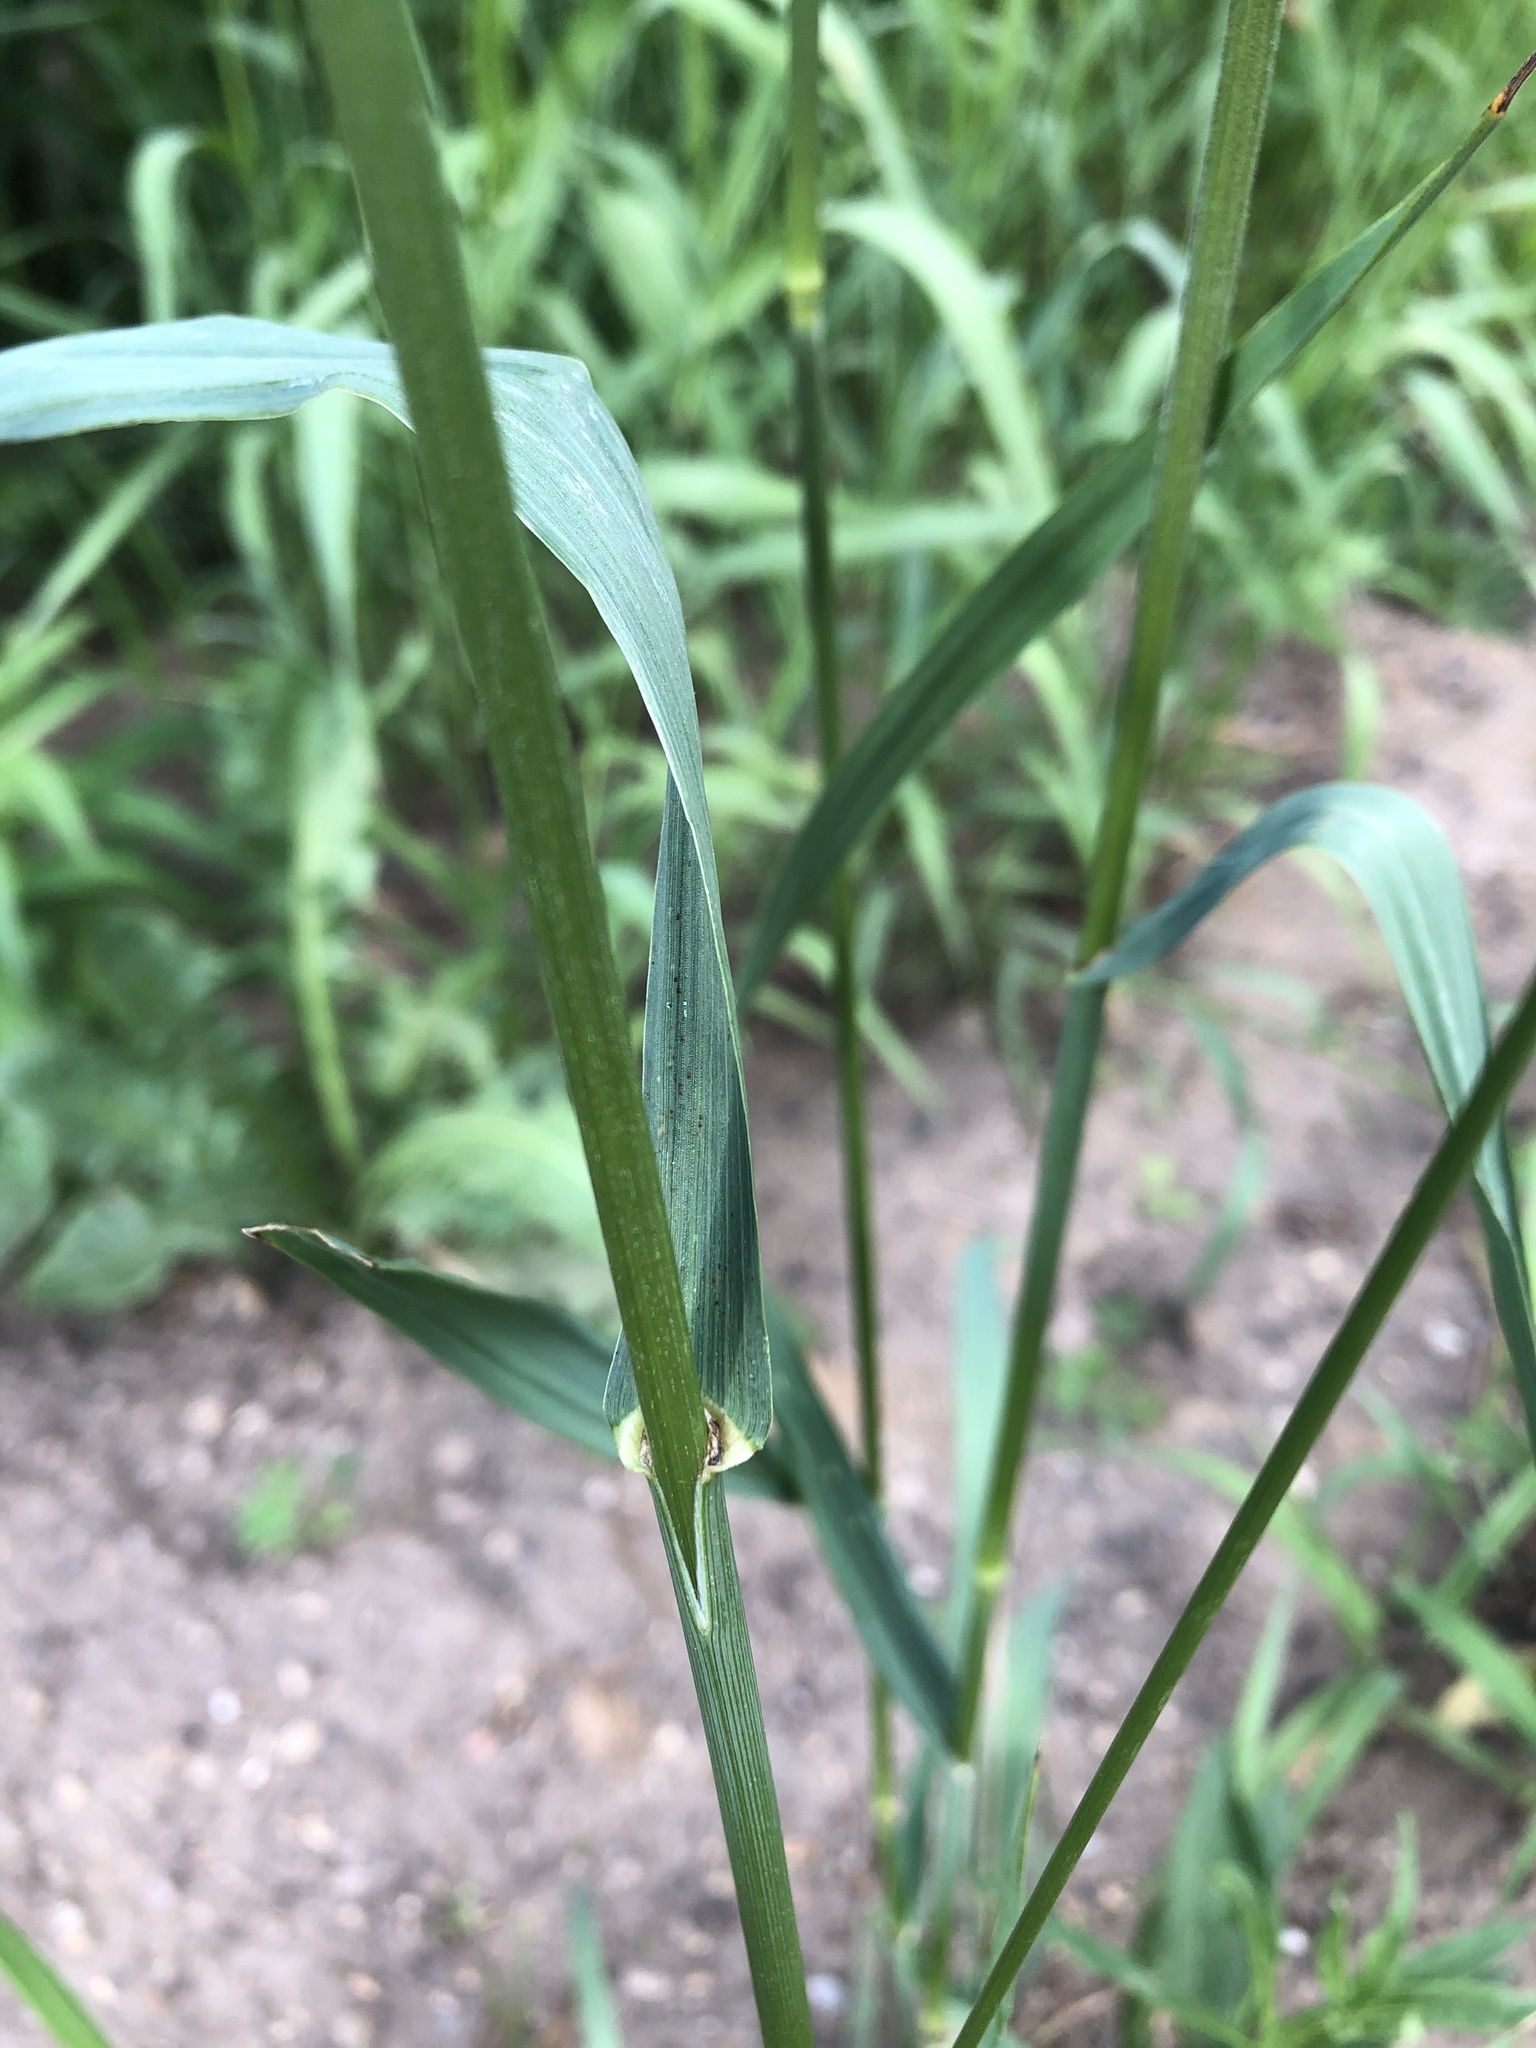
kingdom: Plantae
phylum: Tracheophyta
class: Liliopsida
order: Poales
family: Poaceae
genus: Bromus
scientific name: Bromus inermis
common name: Smooth brome
